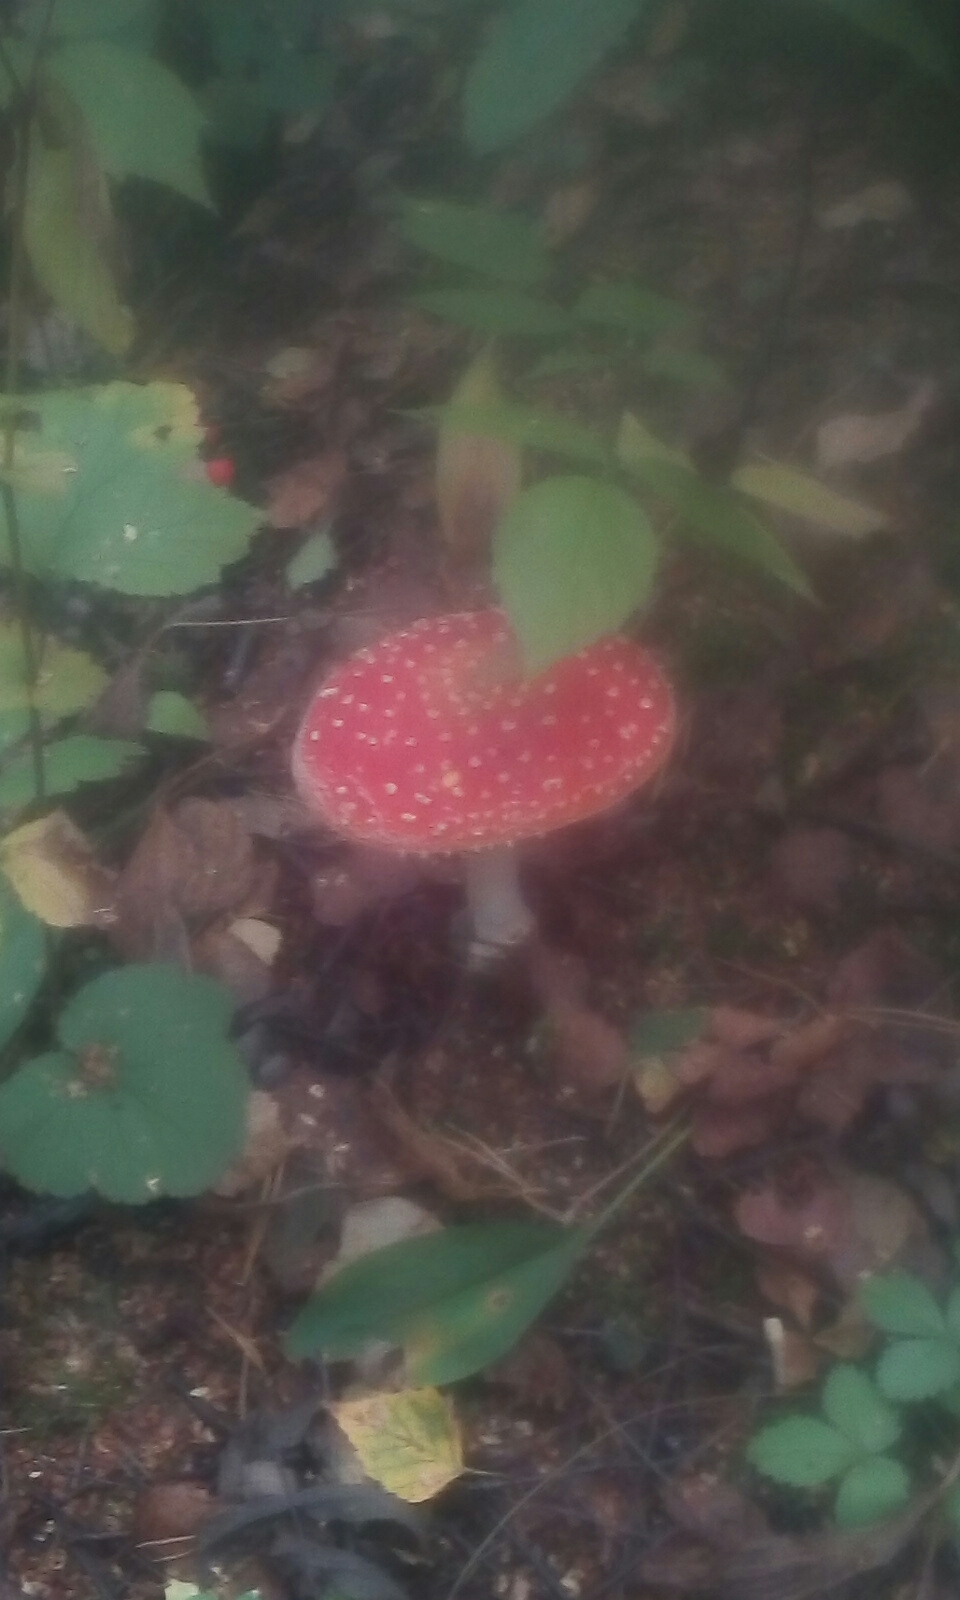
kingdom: Fungi
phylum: Basidiomycota
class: Agaricomycetes
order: Agaricales
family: Amanitaceae
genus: Amanita
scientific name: Amanita muscaria
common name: Fly agaric
